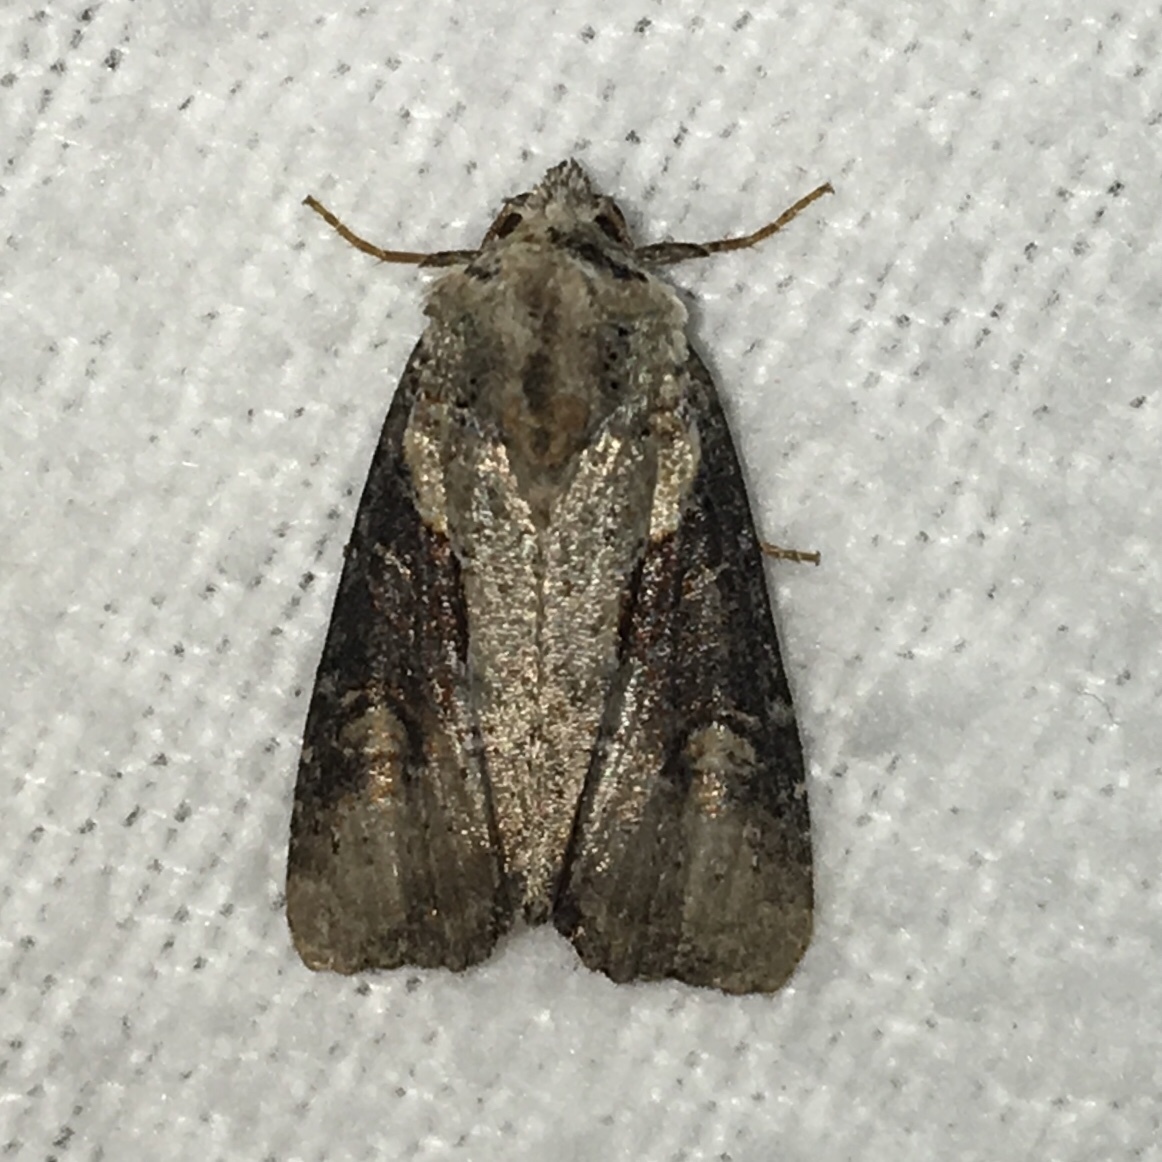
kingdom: Animalia
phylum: Arthropoda
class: Insecta
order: Lepidoptera
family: Noctuidae
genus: Lateroligia
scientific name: Lateroligia ophiogramma
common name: Double lobed
